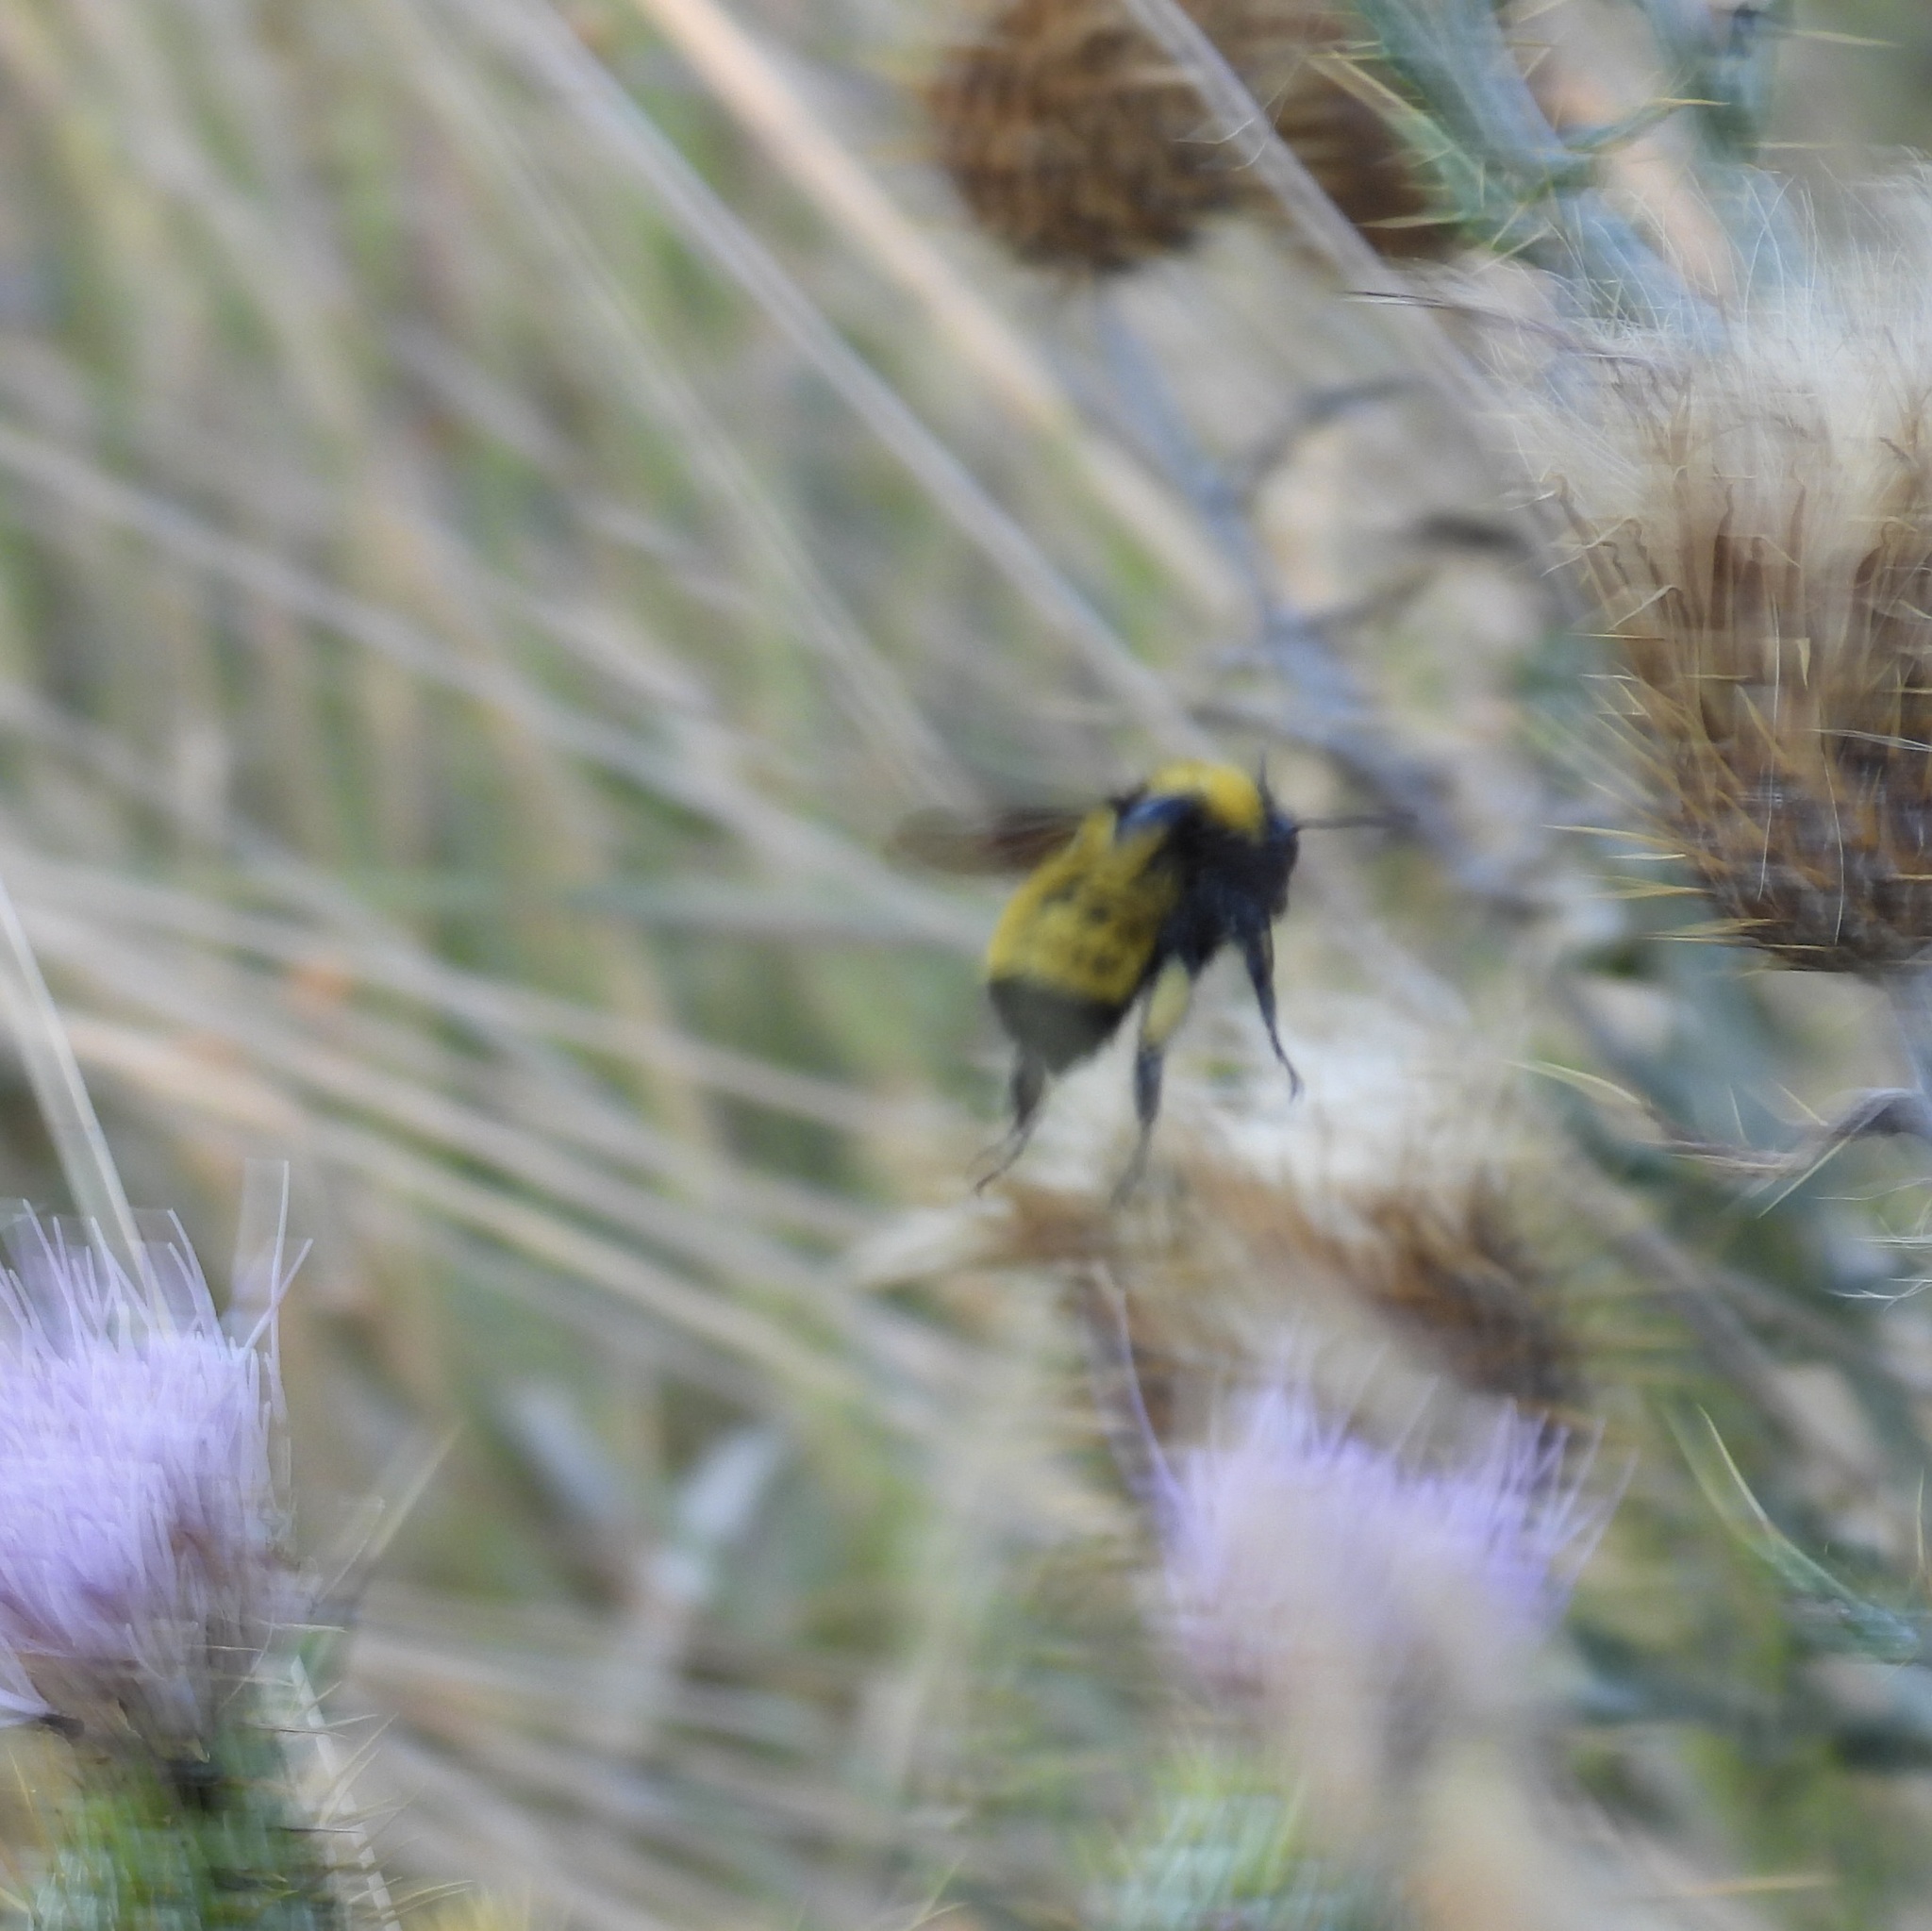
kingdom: Animalia
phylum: Arthropoda
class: Insecta
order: Hymenoptera
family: Apidae
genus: Bombus
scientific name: Bombus sonorus
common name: Sonoran bumble bee
